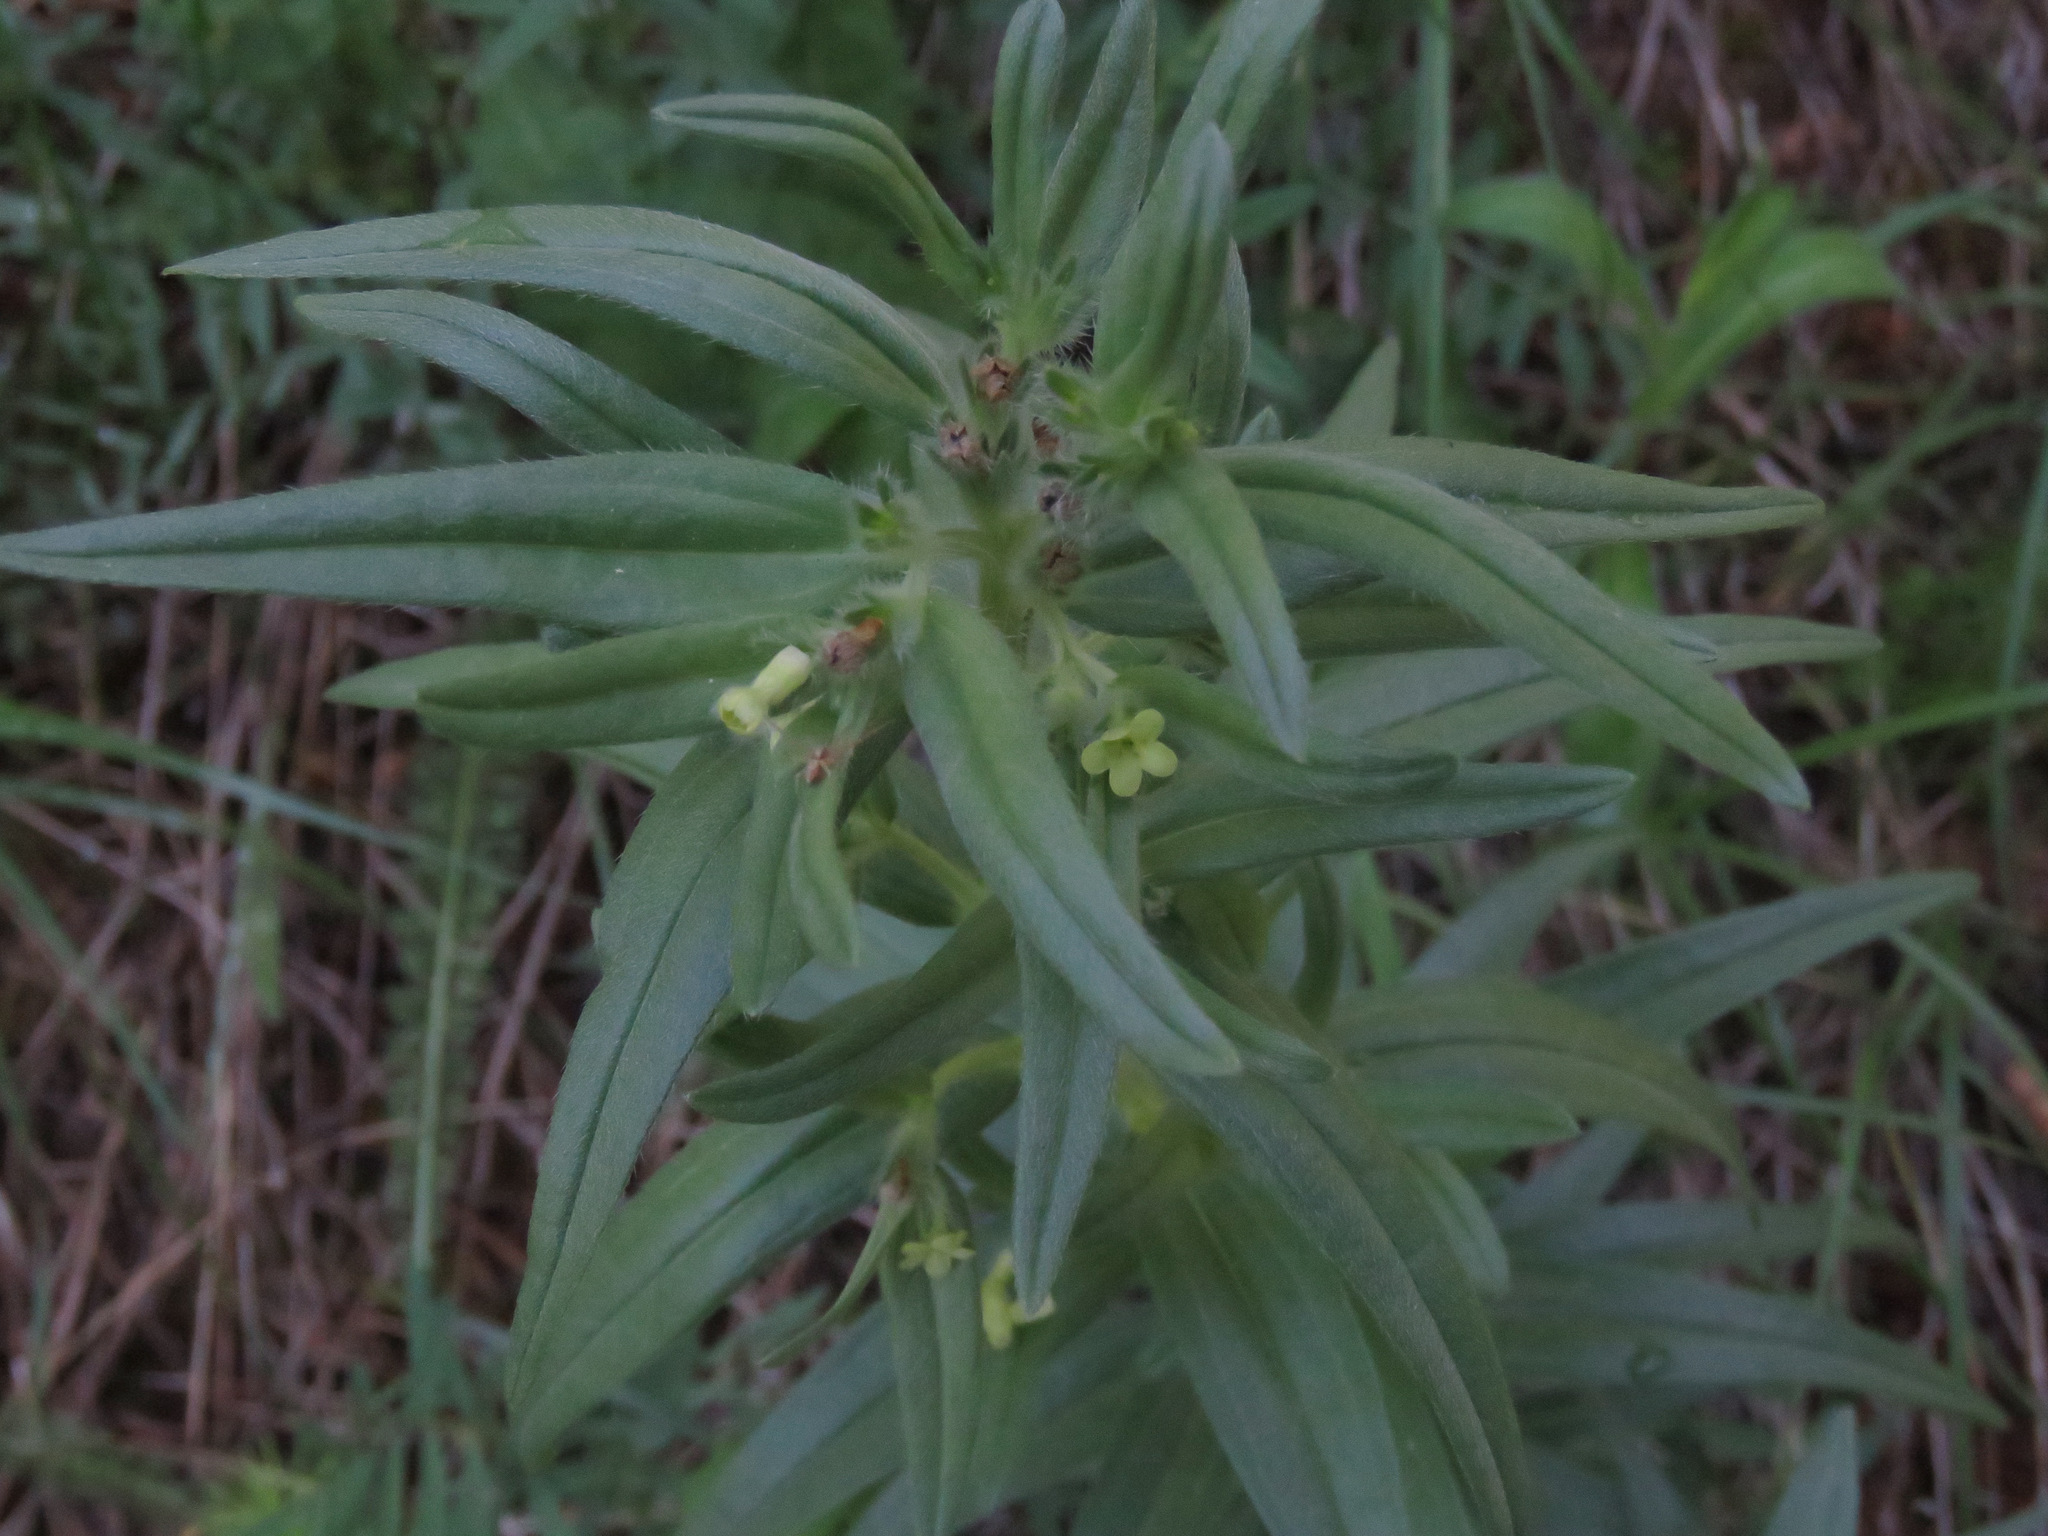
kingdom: Plantae
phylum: Tracheophyta
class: Magnoliopsida
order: Boraginales
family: Boraginaceae
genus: Lithospermum
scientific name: Lithospermum ruderale
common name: Western gromwell
